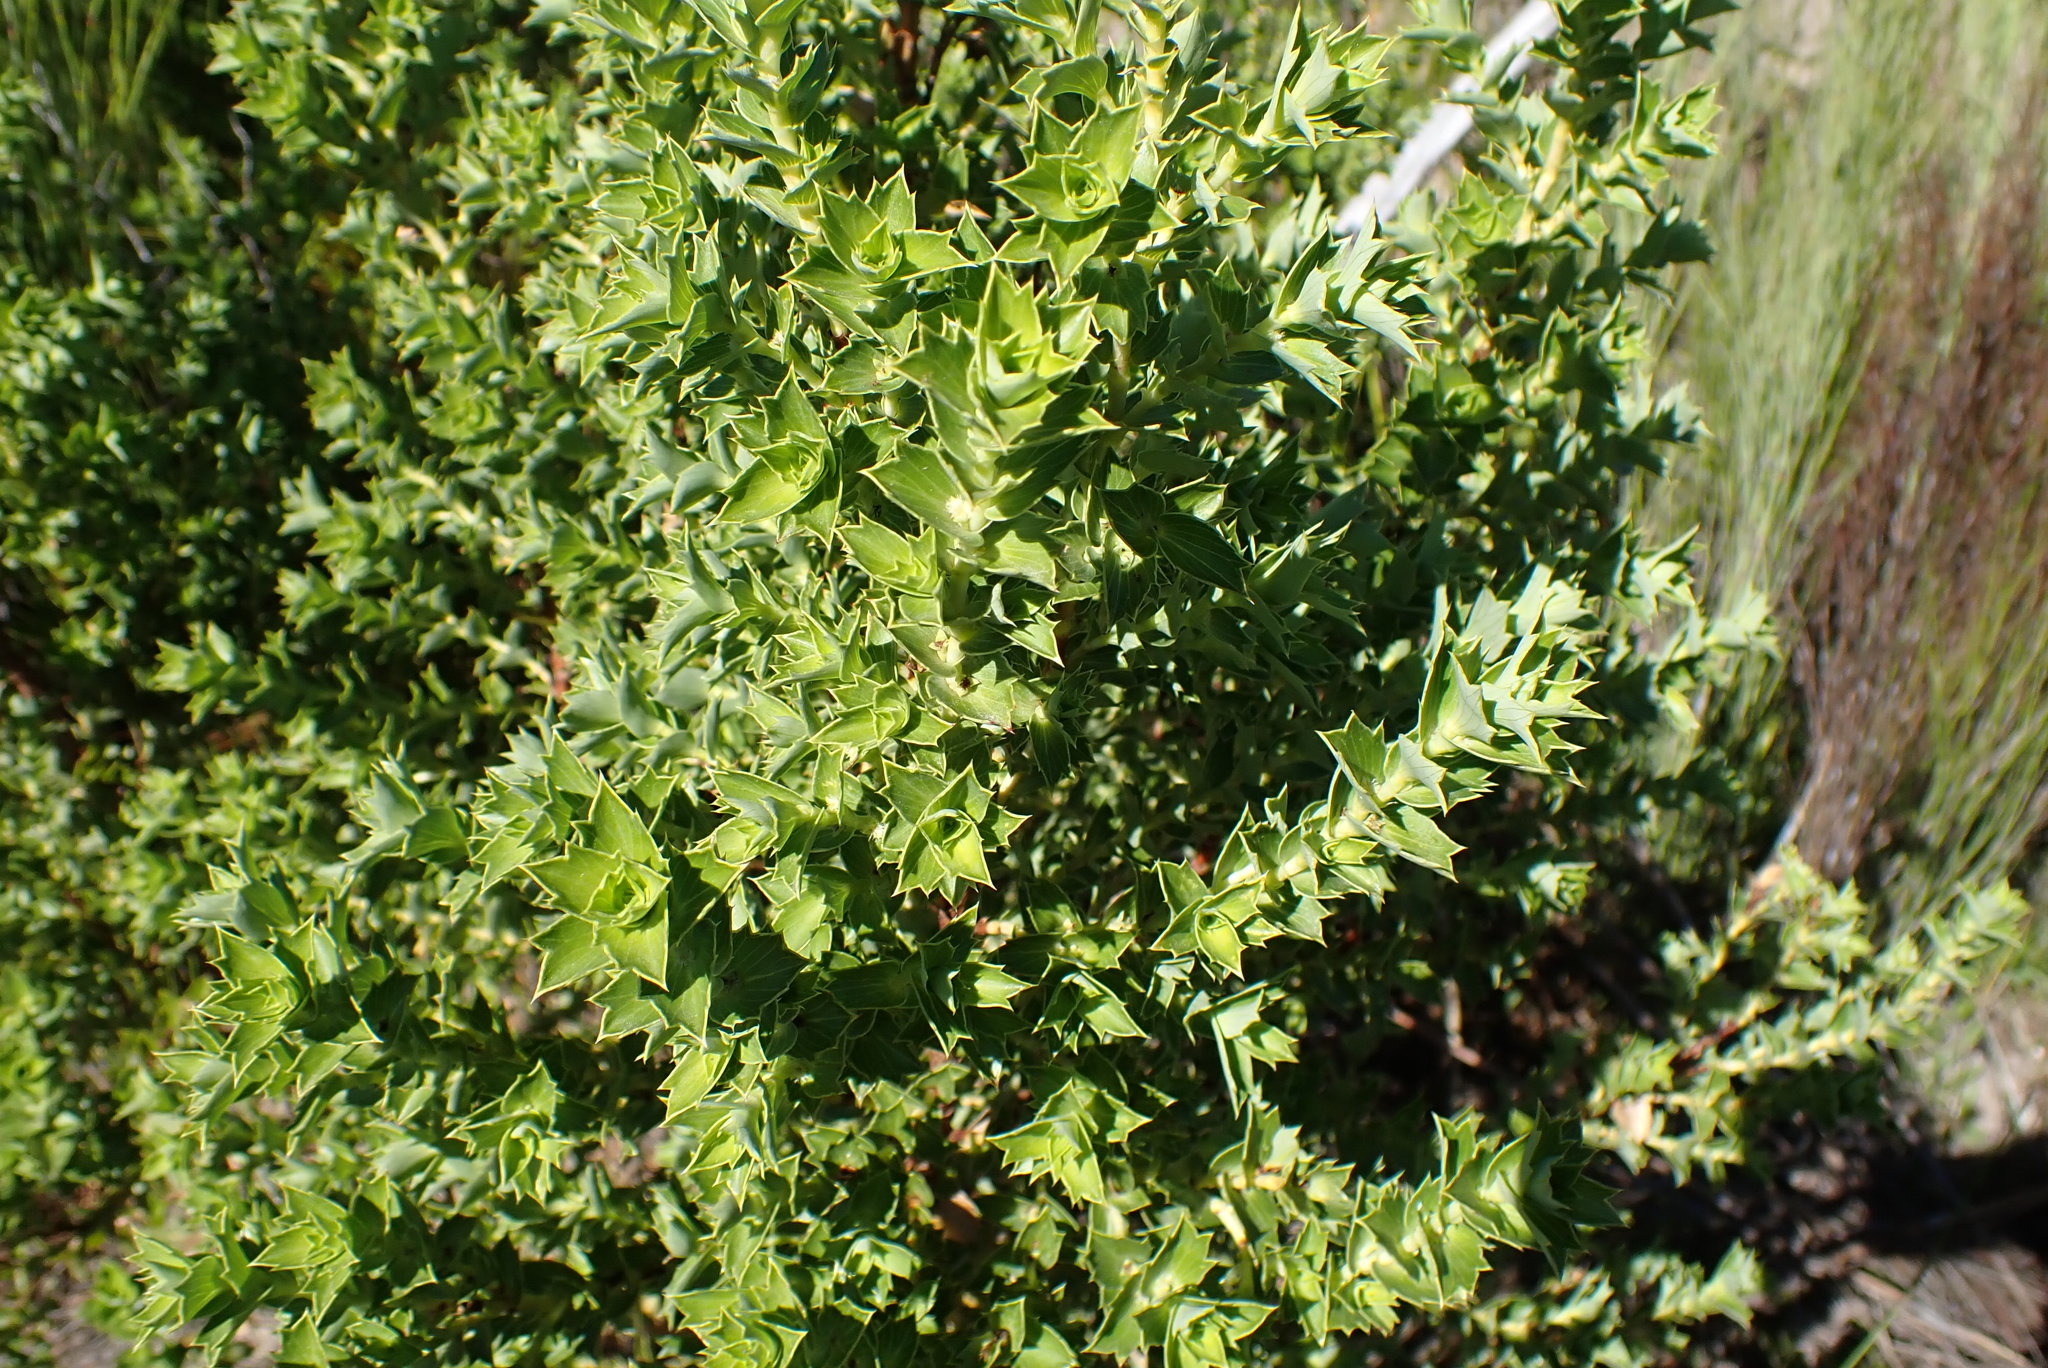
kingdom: Plantae
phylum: Tracheophyta
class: Magnoliopsida
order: Rosales
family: Rosaceae
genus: Cliffortia
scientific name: Cliffortia ilicifolia
